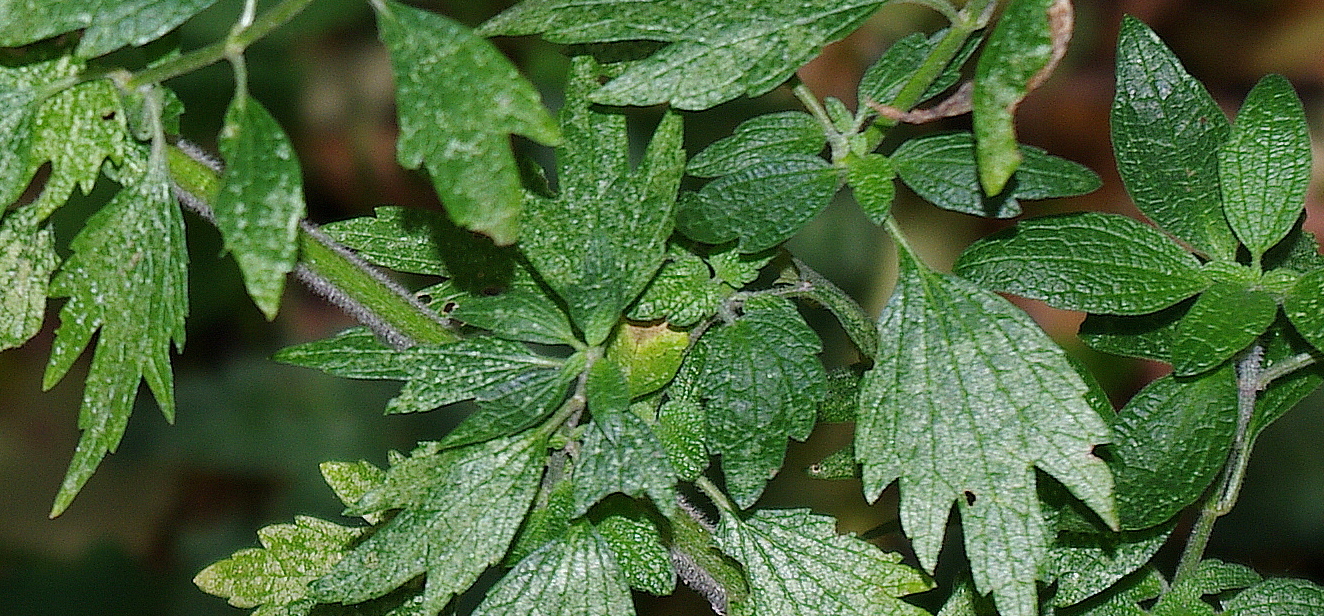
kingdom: Plantae
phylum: Tracheophyta
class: Magnoliopsida
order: Lamiales
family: Lamiaceae
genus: Leonurus
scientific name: Leonurus quinquelobatus
